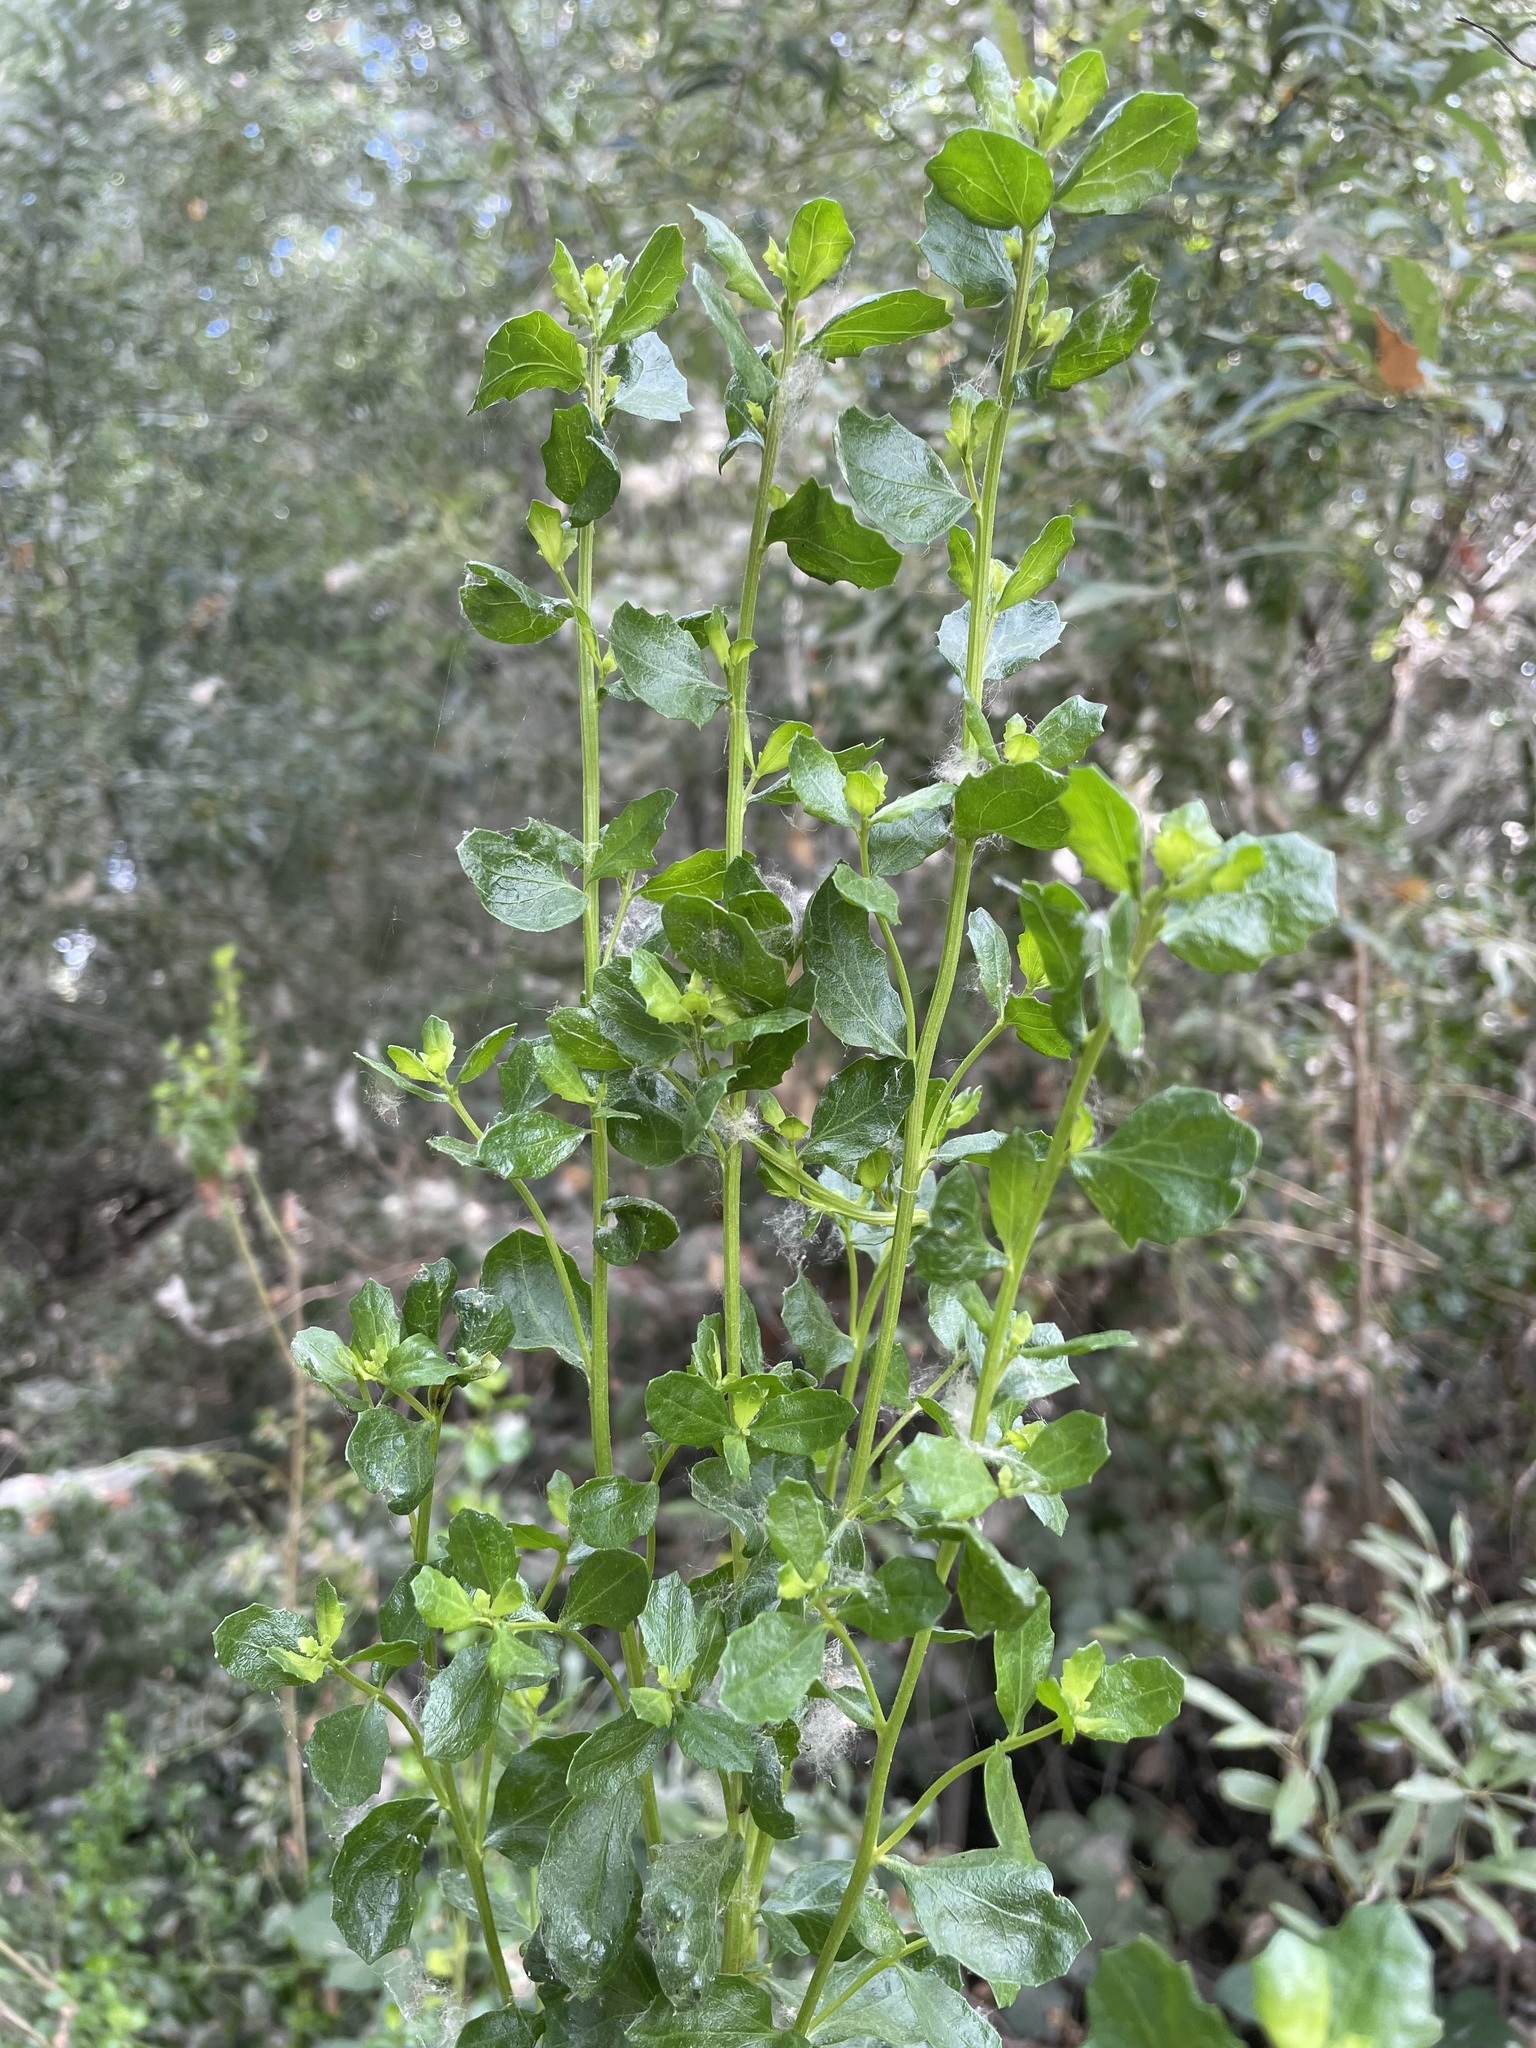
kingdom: Plantae
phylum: Tracheophyta
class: Magnoliopsida
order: Asterales
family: Asteraceae
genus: Baccharis
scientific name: Baccharis pilularis
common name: Coyotebrush
